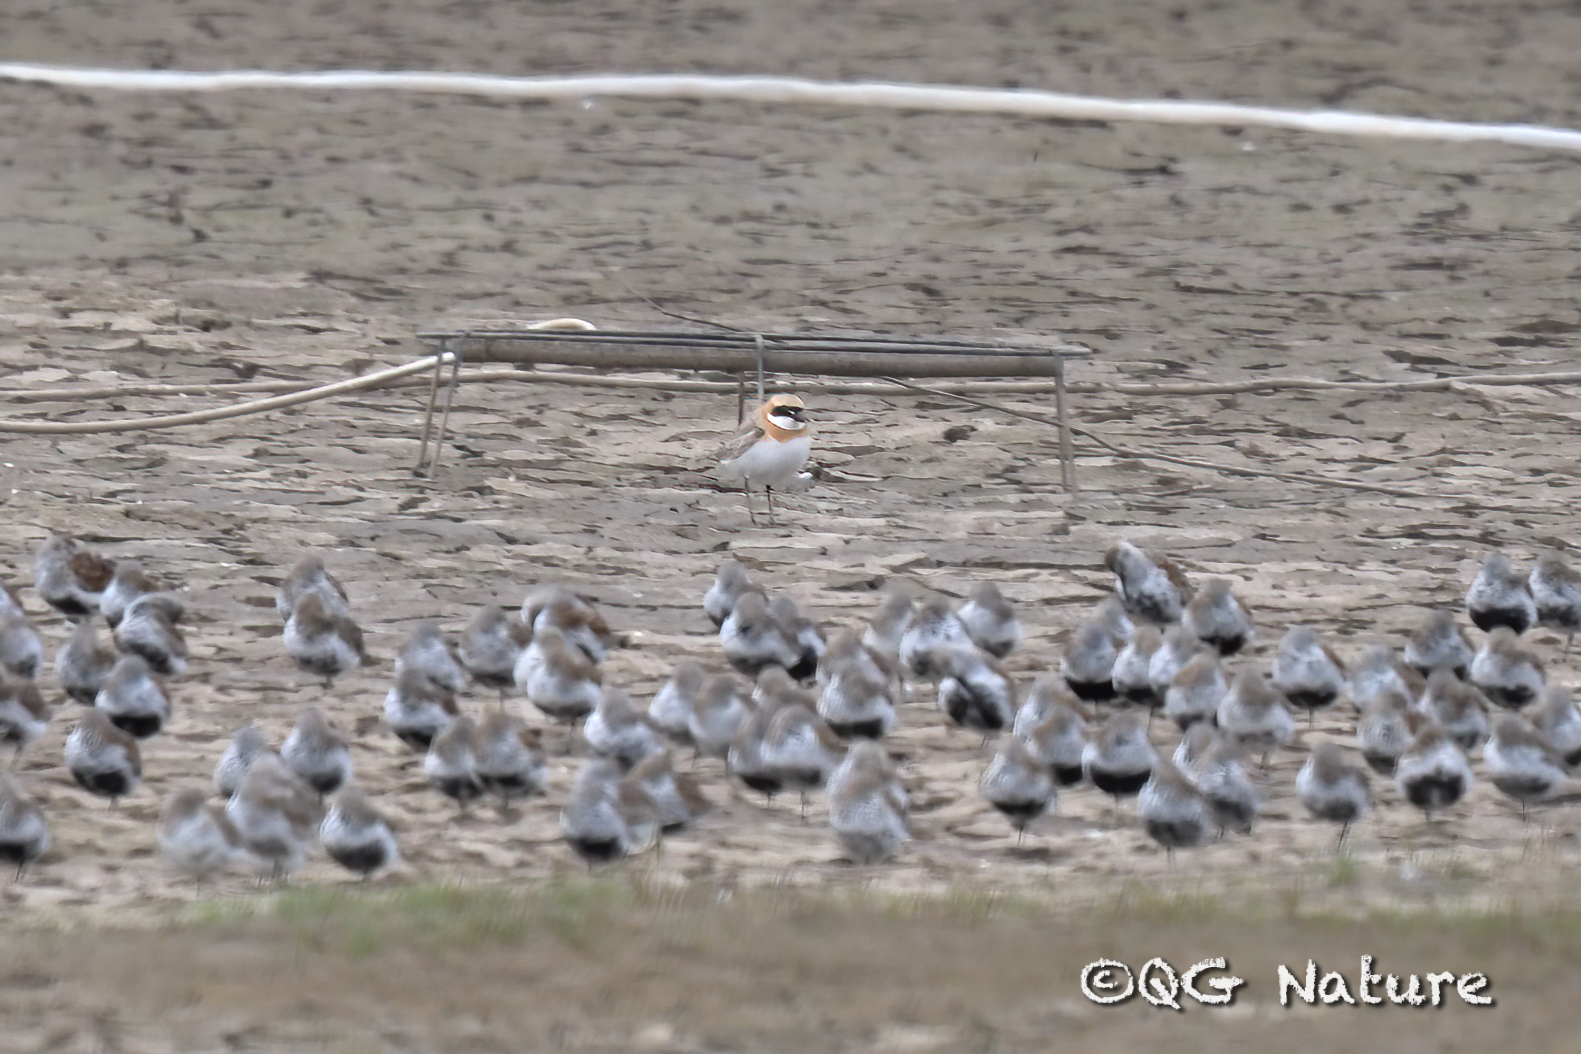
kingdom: Animalia
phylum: Chordata
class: Aves
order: Charadriiformes
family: Charadriidae
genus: Anarhynchus
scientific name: Anarhynchus
